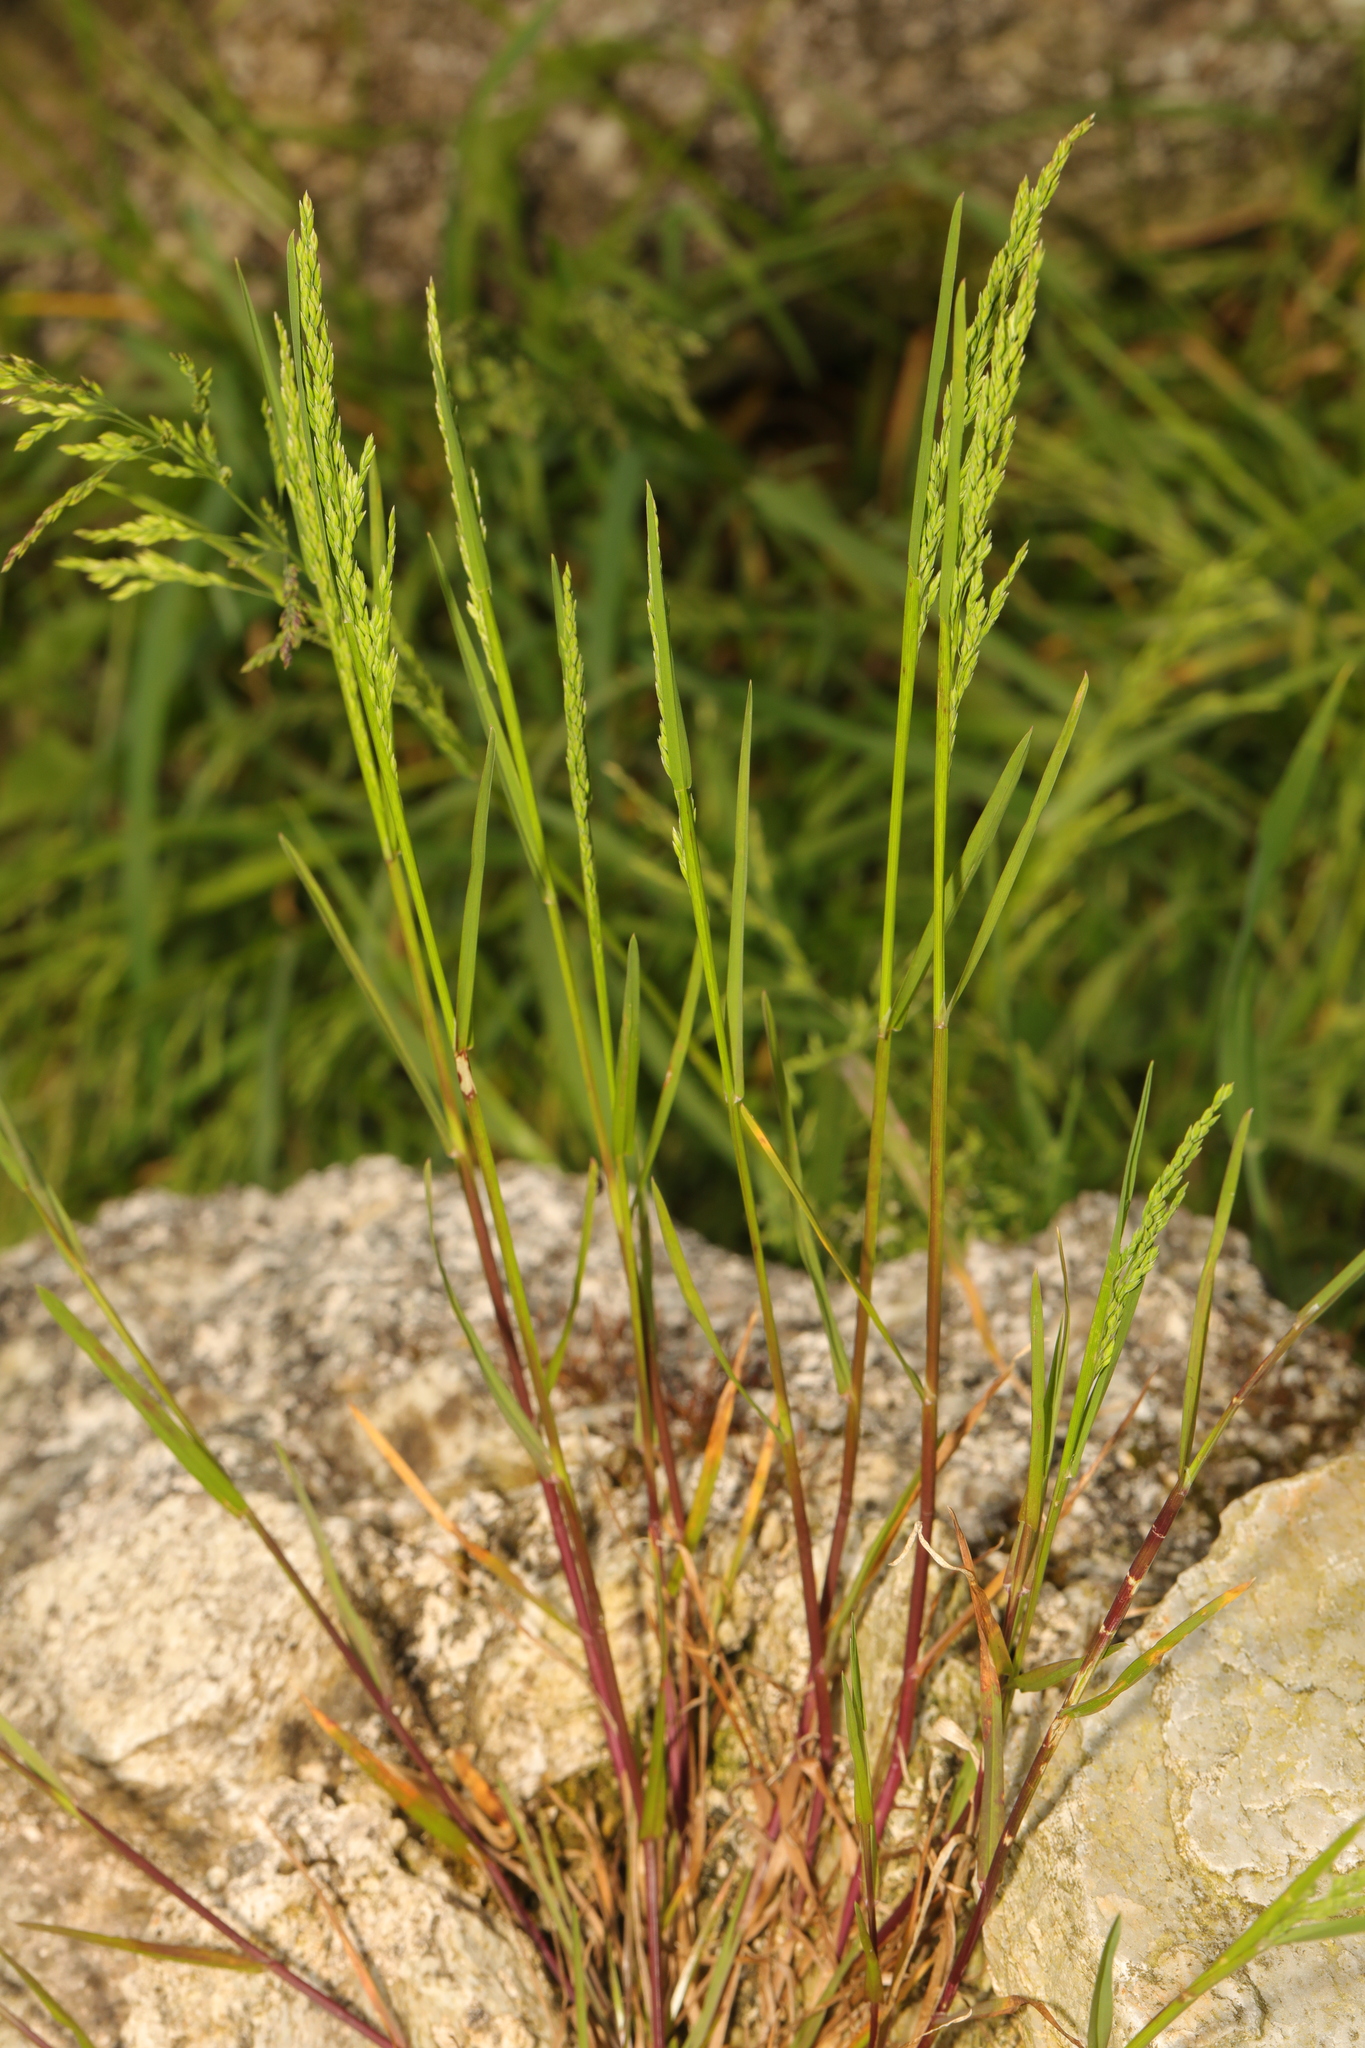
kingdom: Plantae
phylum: Tracheophyta
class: Liliopsida
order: Poales
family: Poaceae
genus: Poa
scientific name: Poa trivialis
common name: Rough bluegrass
